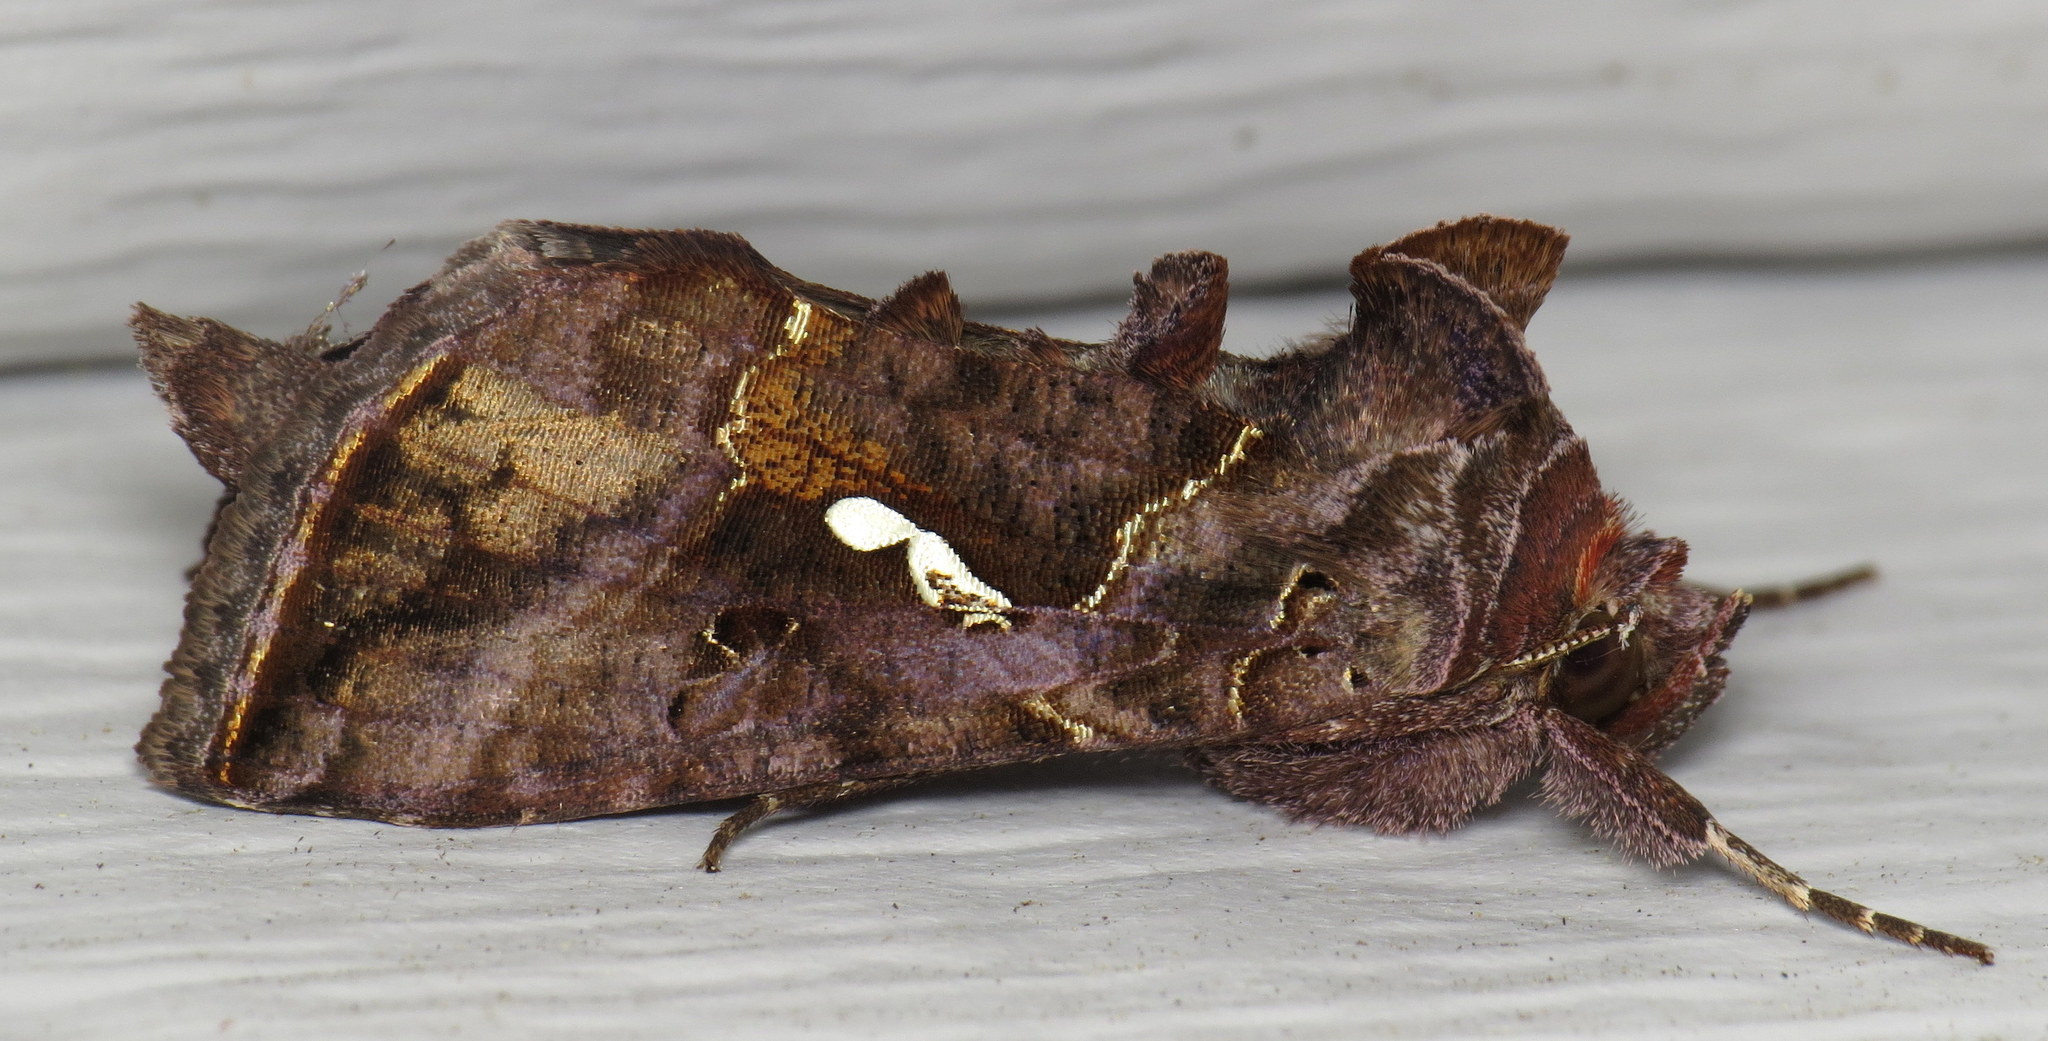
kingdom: Animalia
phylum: Arthropoda
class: Insecta
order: Lepidoptera
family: Noctuidae
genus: Autographa
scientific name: Autographa precationis
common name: Common looper moth
